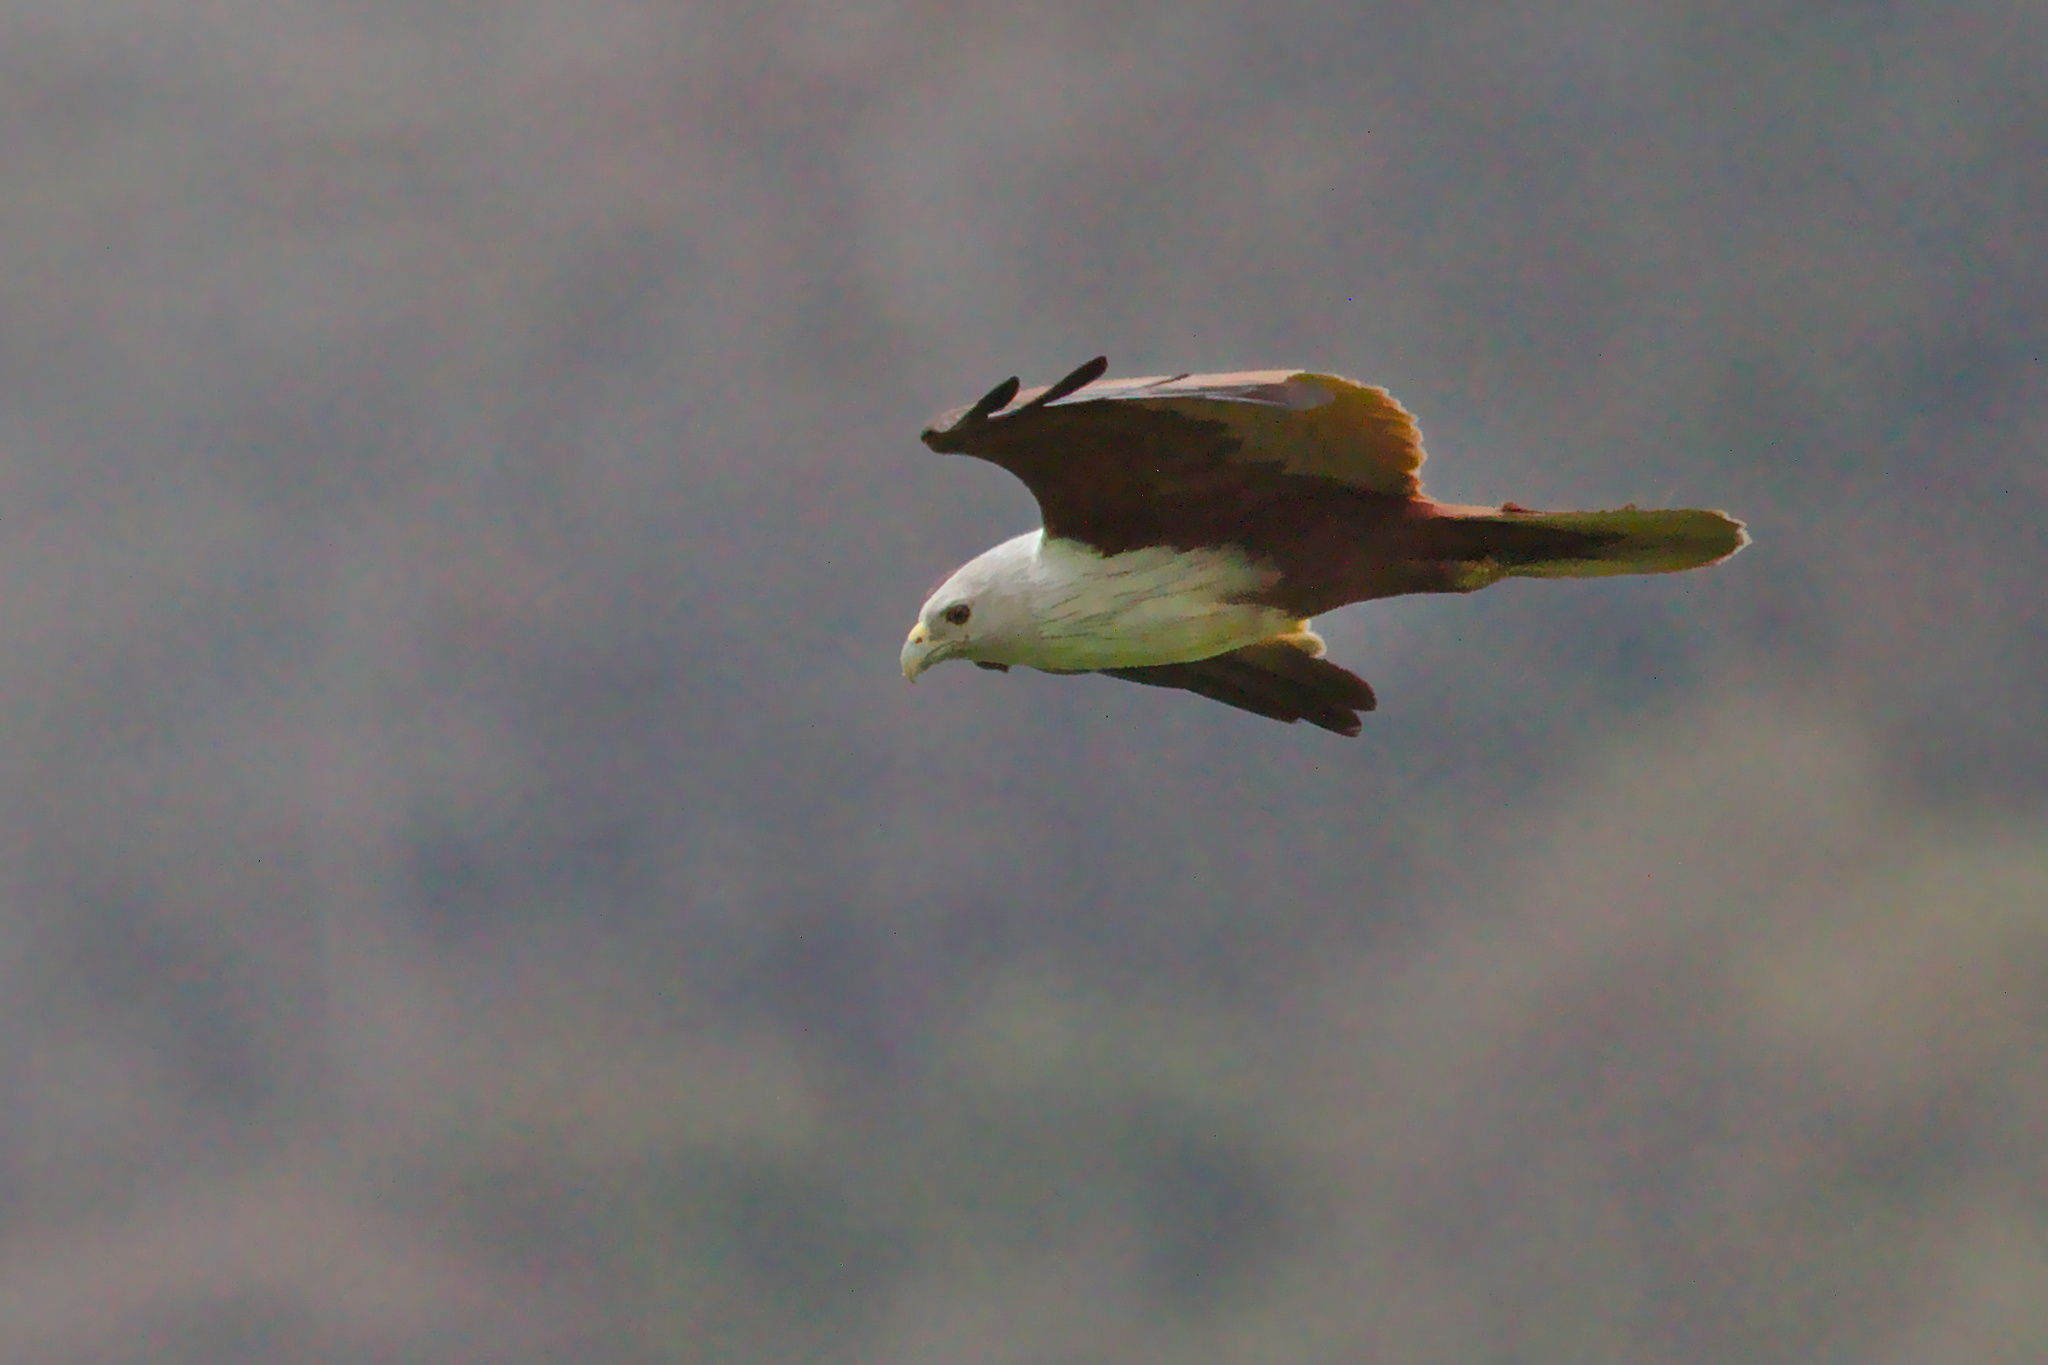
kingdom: Animalia
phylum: Chordata
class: Aves
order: Accipitriformes
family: Accipitridae
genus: Haliastur
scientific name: Haliastur indus
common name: Brahminy kite
